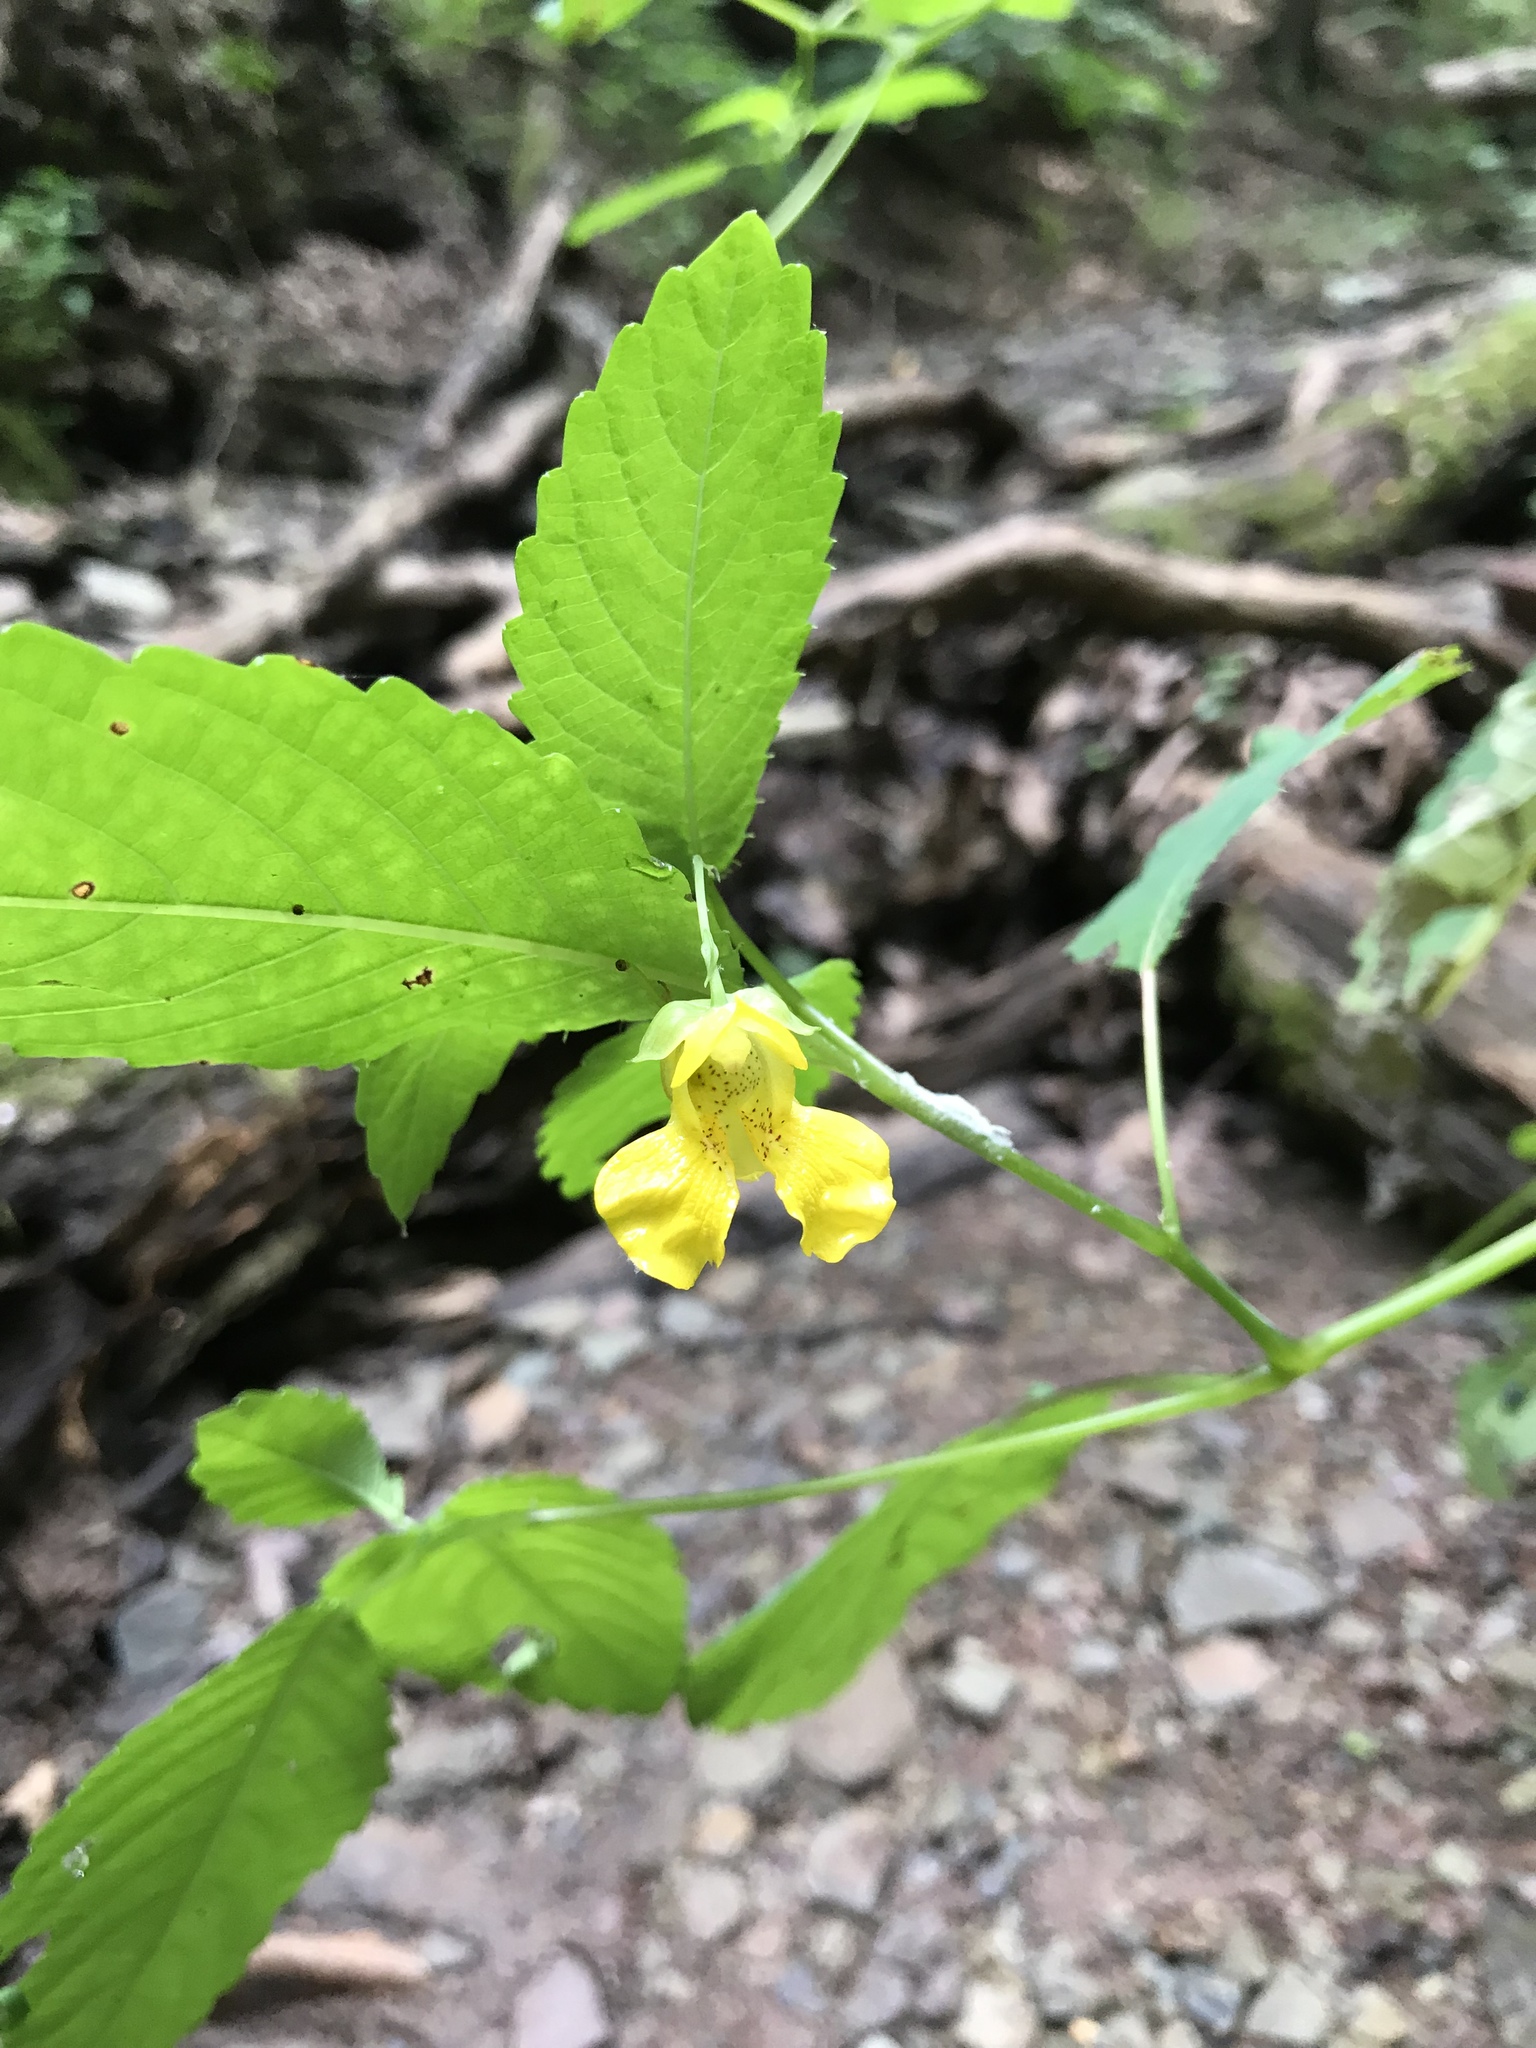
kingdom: Plantae
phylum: Tracheophyta
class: Magnoliopsida
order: Ericales
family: Balsaminaceae
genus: Impatiens
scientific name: Impatiens pallida
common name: Pale snapweed
